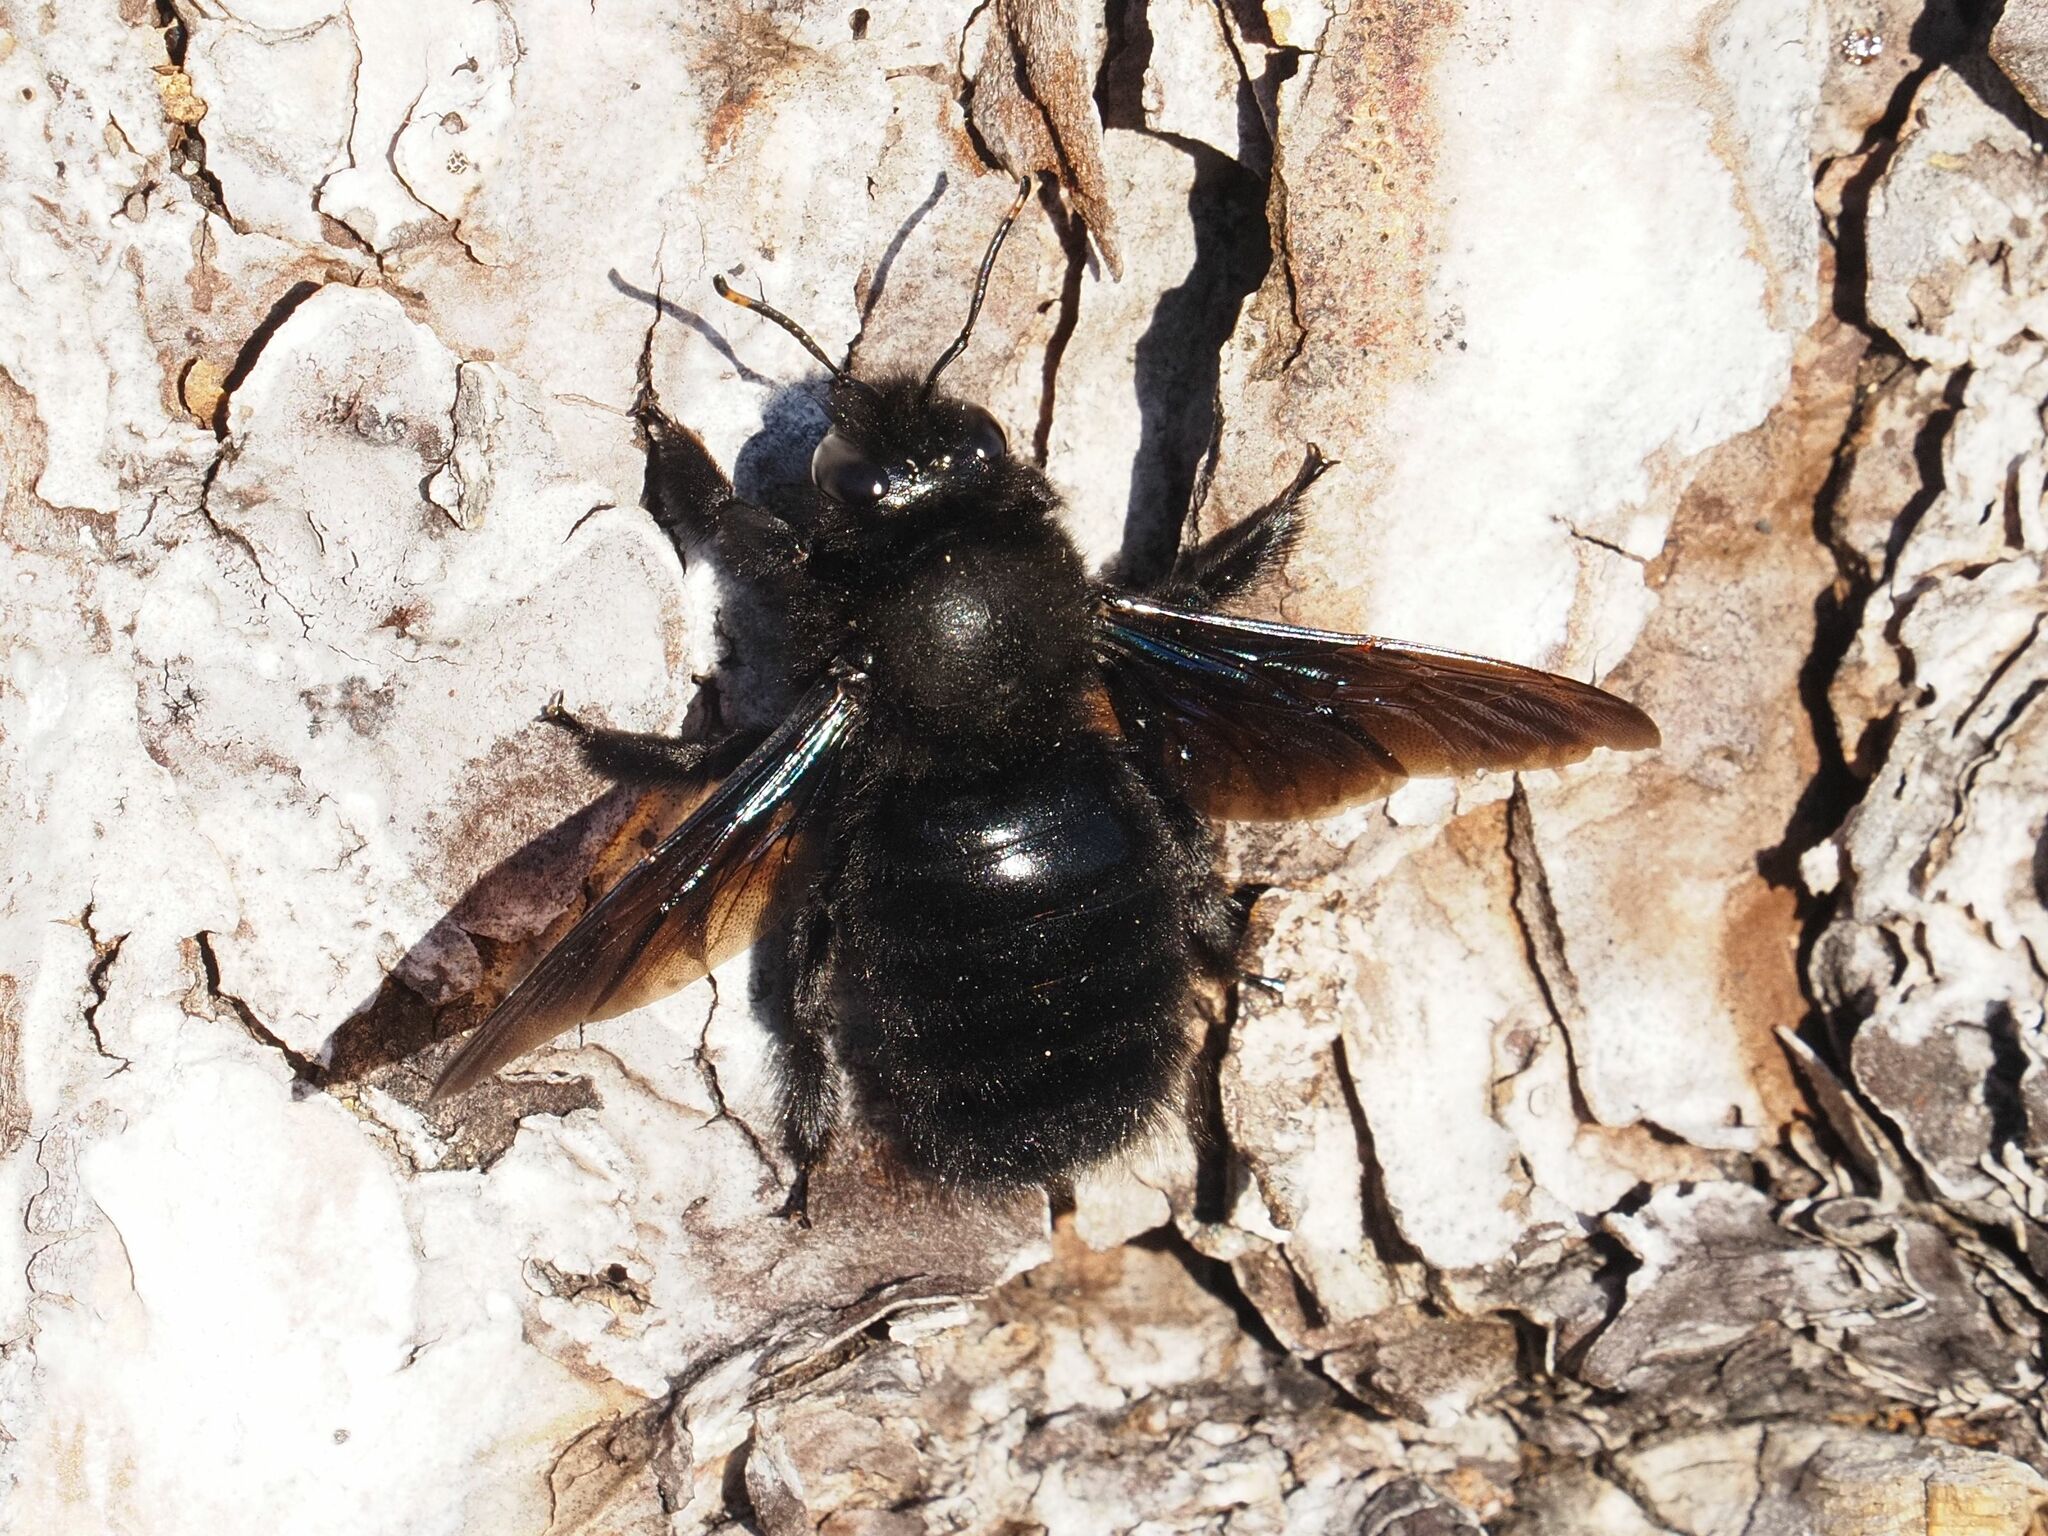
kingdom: Animalia
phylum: Arthropoda
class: Insecta
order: Hymenoptera
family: Apidae
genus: Xylocopa
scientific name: Xylocopa violacea
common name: Violet carpenter bee
